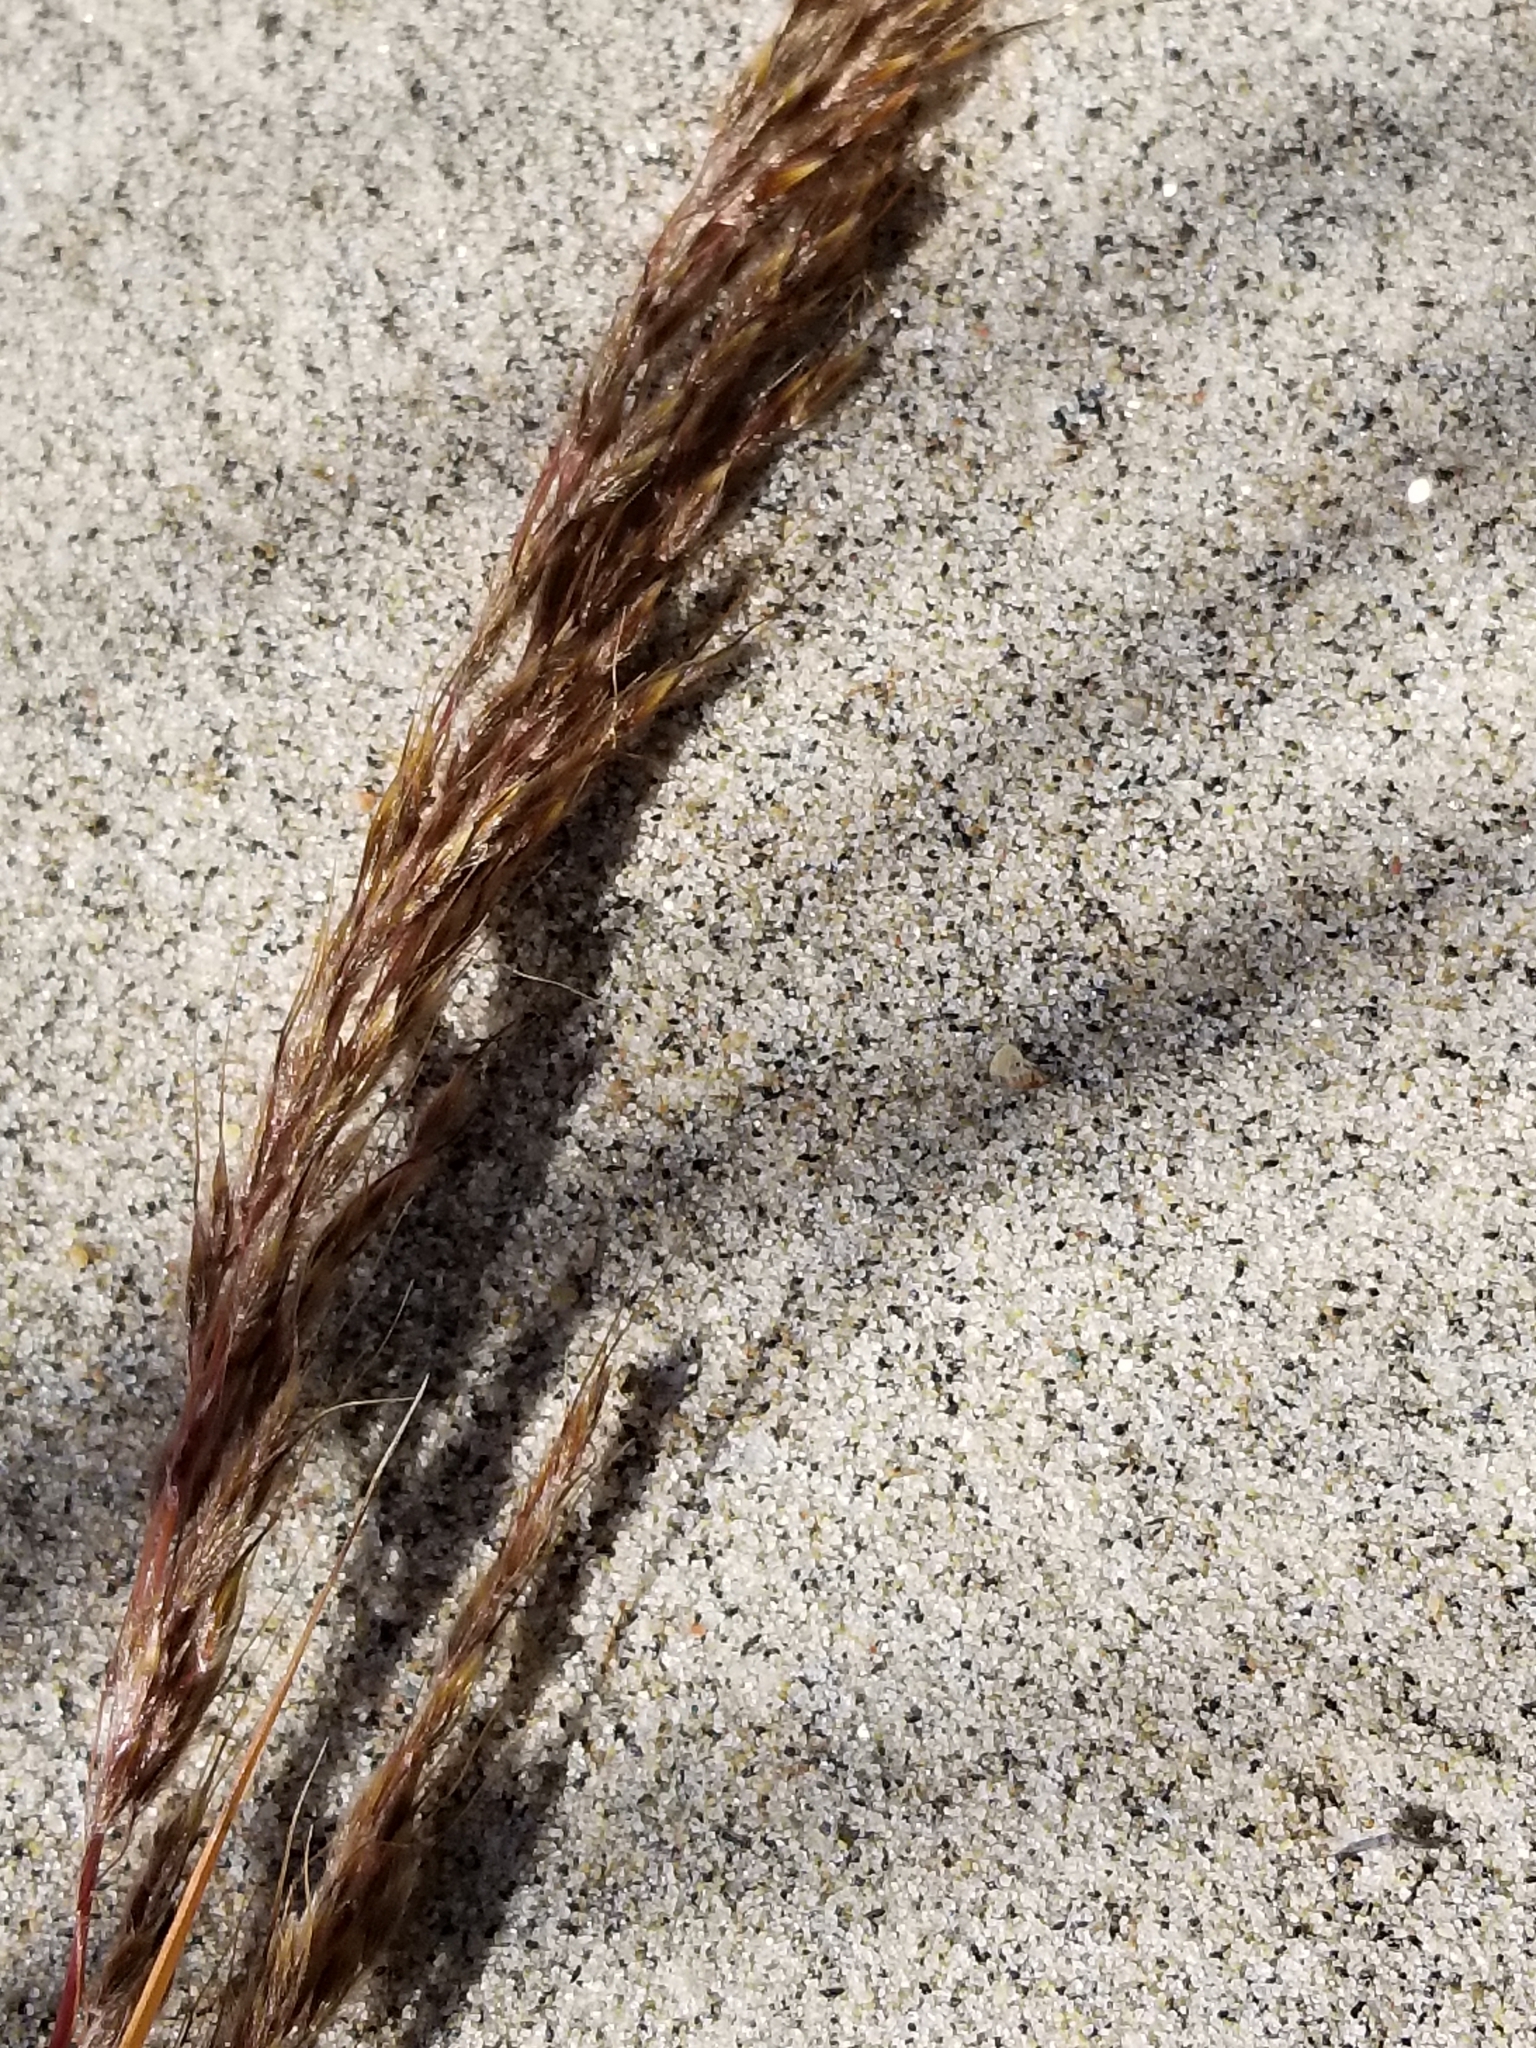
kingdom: Plantae
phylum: Tracheophyta
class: Liliopsida
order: Poales
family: Poaceae
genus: Sorghastrum
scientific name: Sorghastrum nutans
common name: Indian grass
